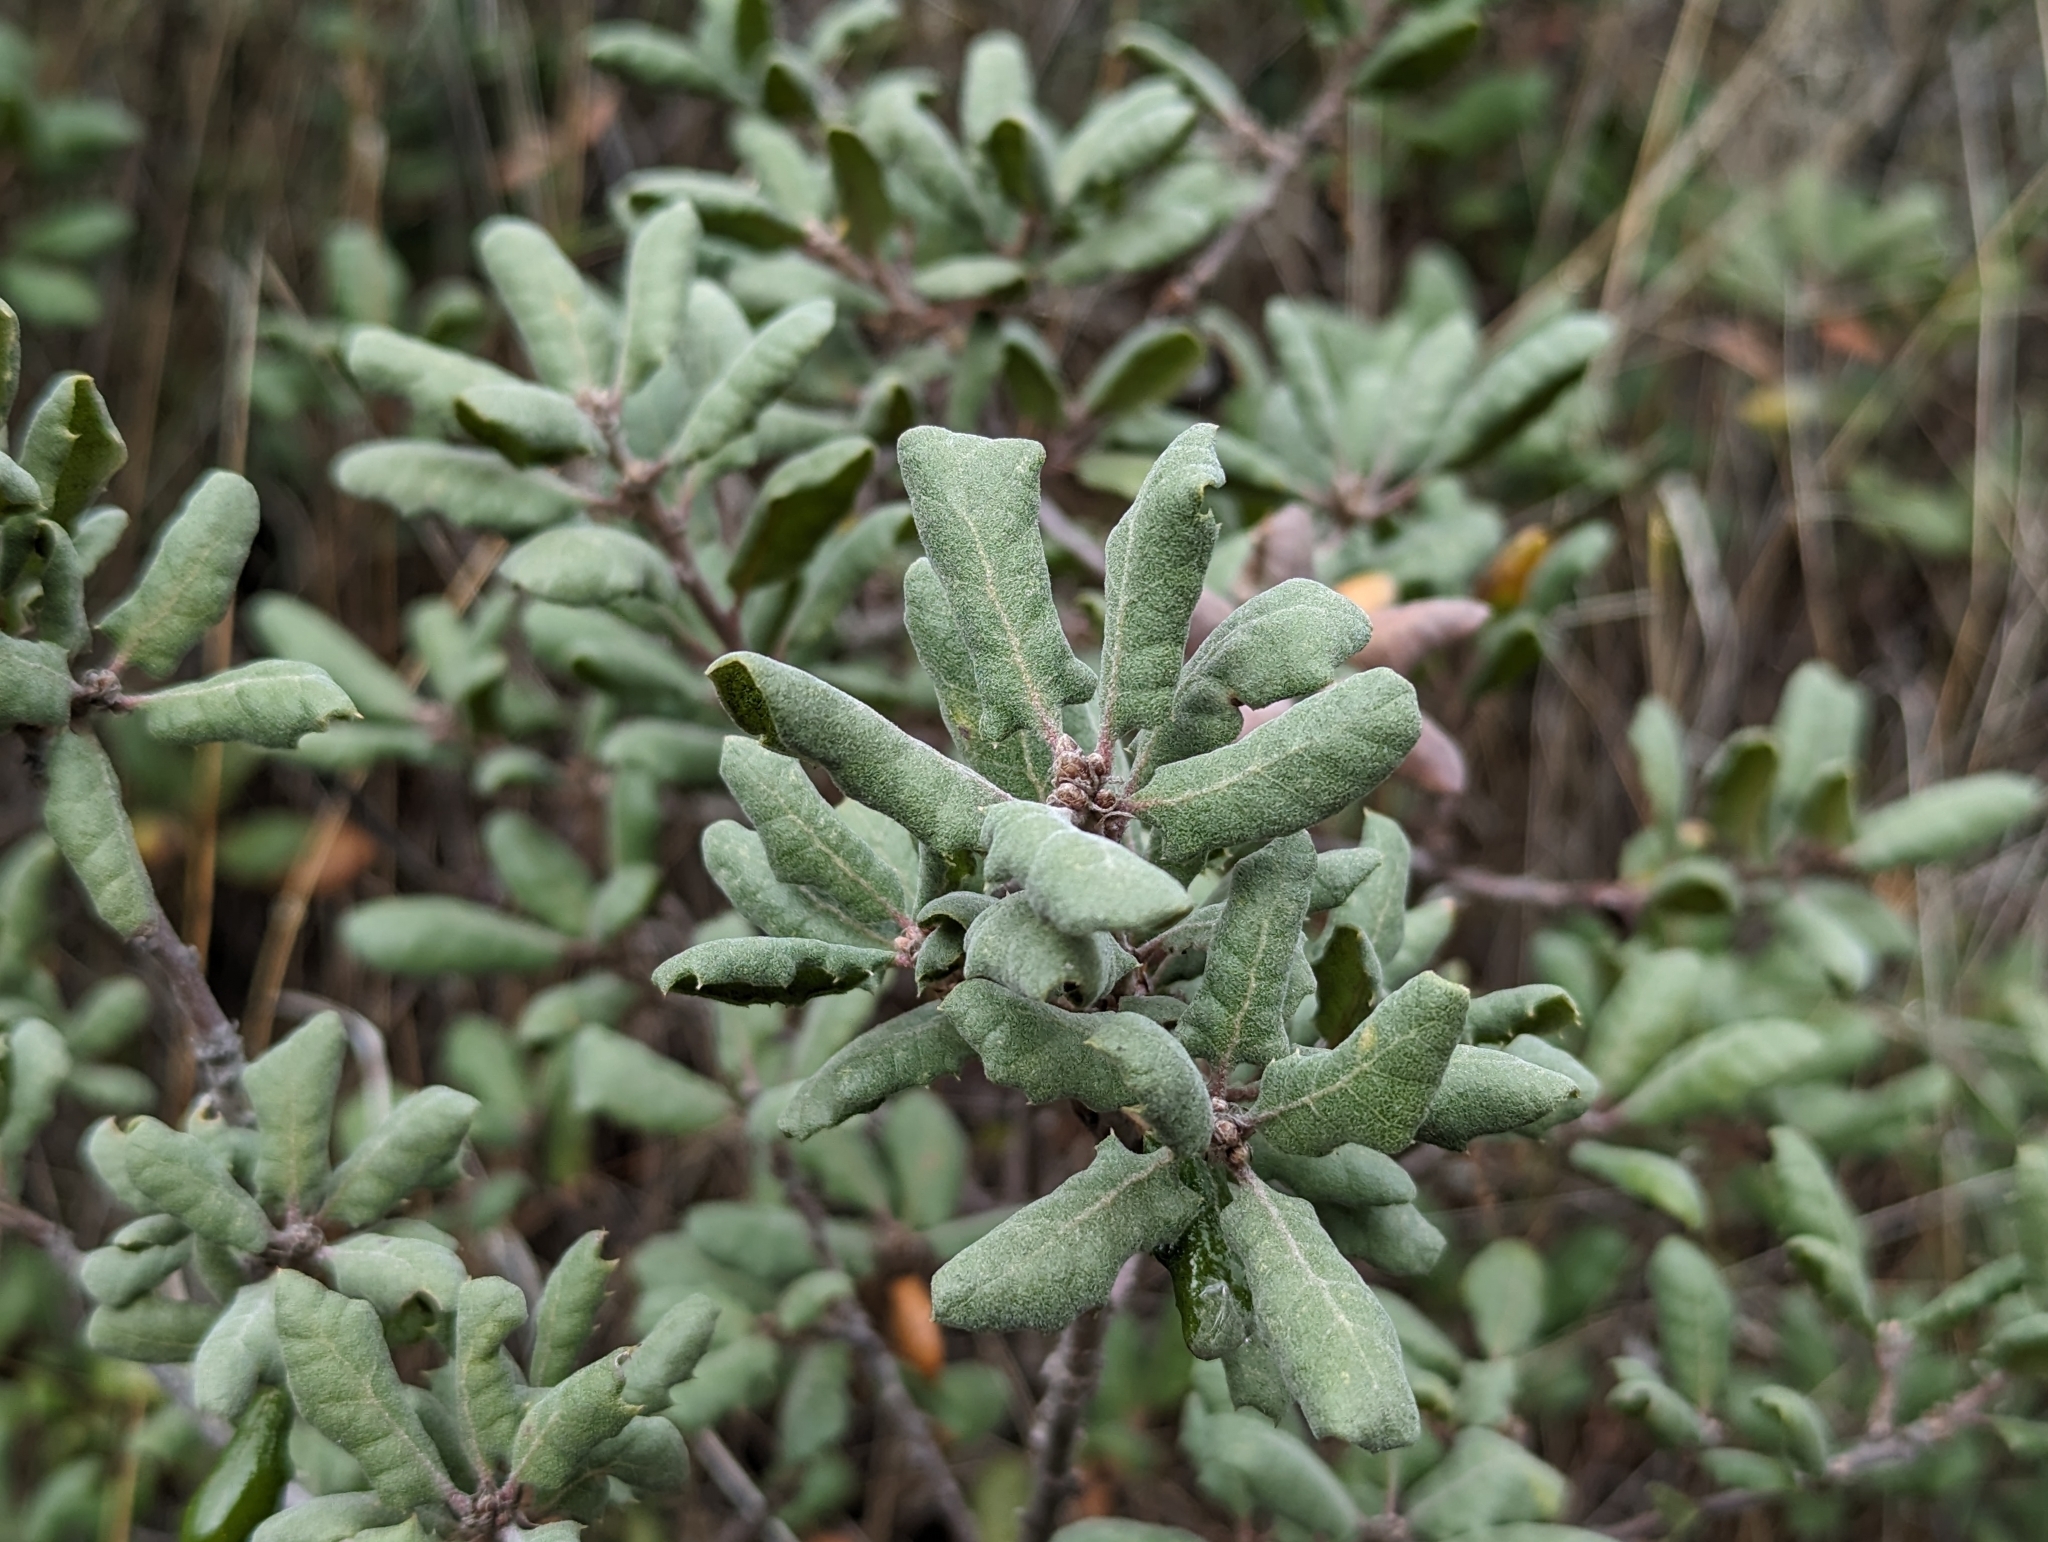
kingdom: Plantae
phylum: Tracheophyta
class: Magnoliopsida
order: Fagales
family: Fagaceae
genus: Quercus
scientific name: Quercus durata
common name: Leather oak
